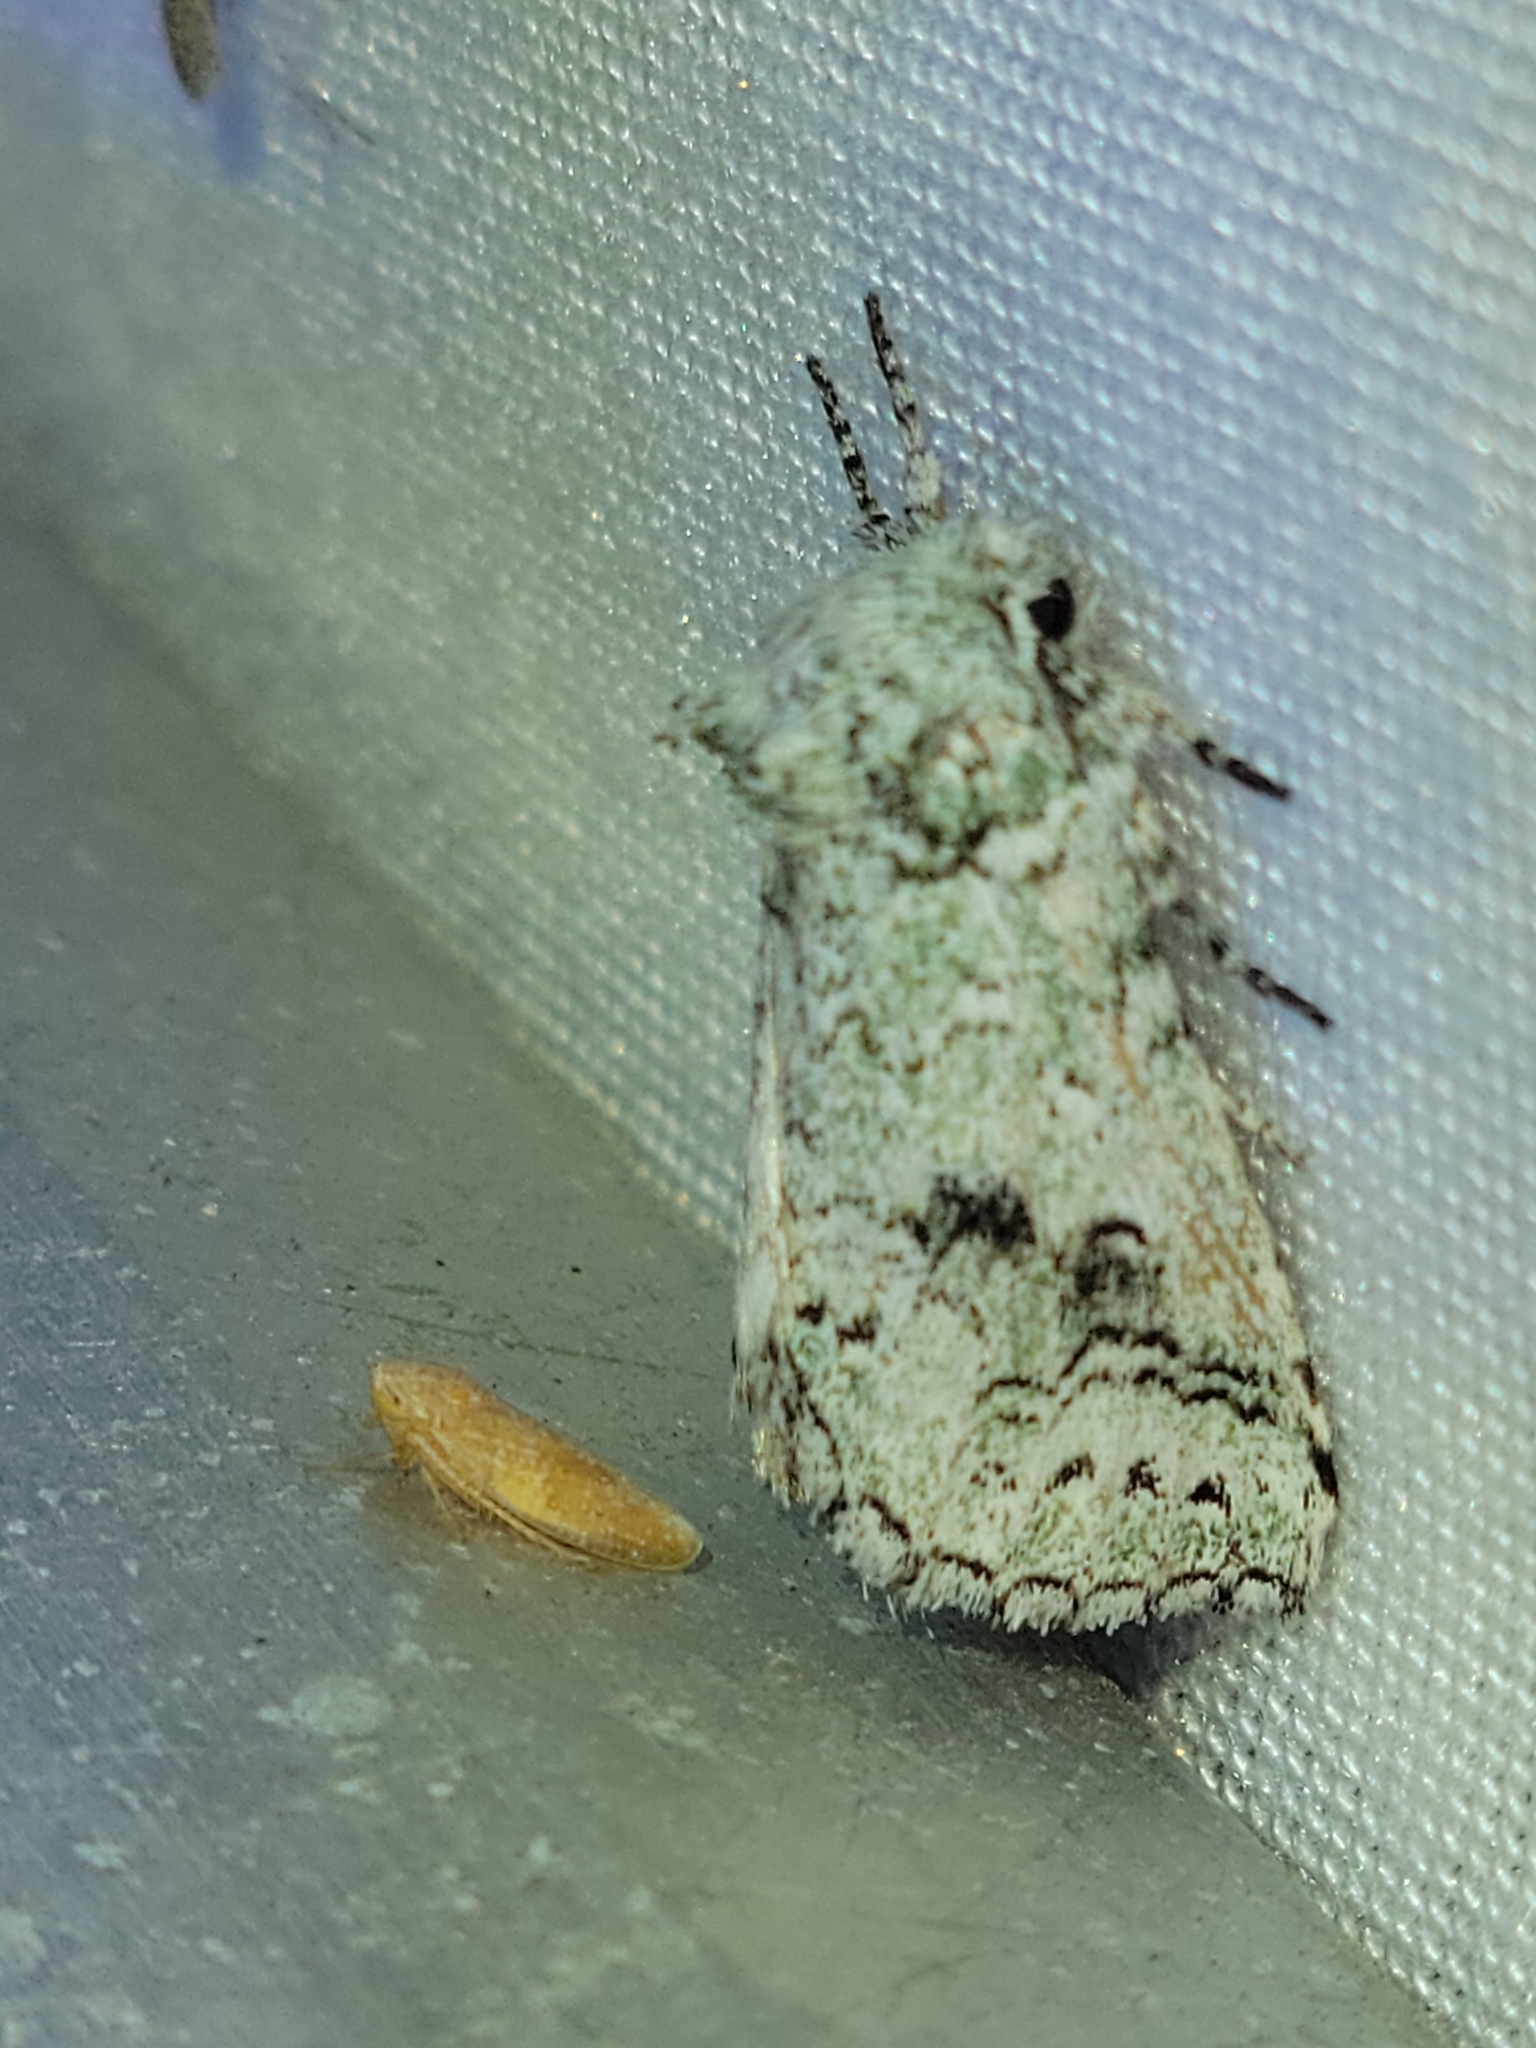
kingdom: Animalia
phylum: Arthropoda
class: Insecta
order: Lepidoptera
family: Notodontidae
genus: Litodonta
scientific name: Litodonta hydromeli
